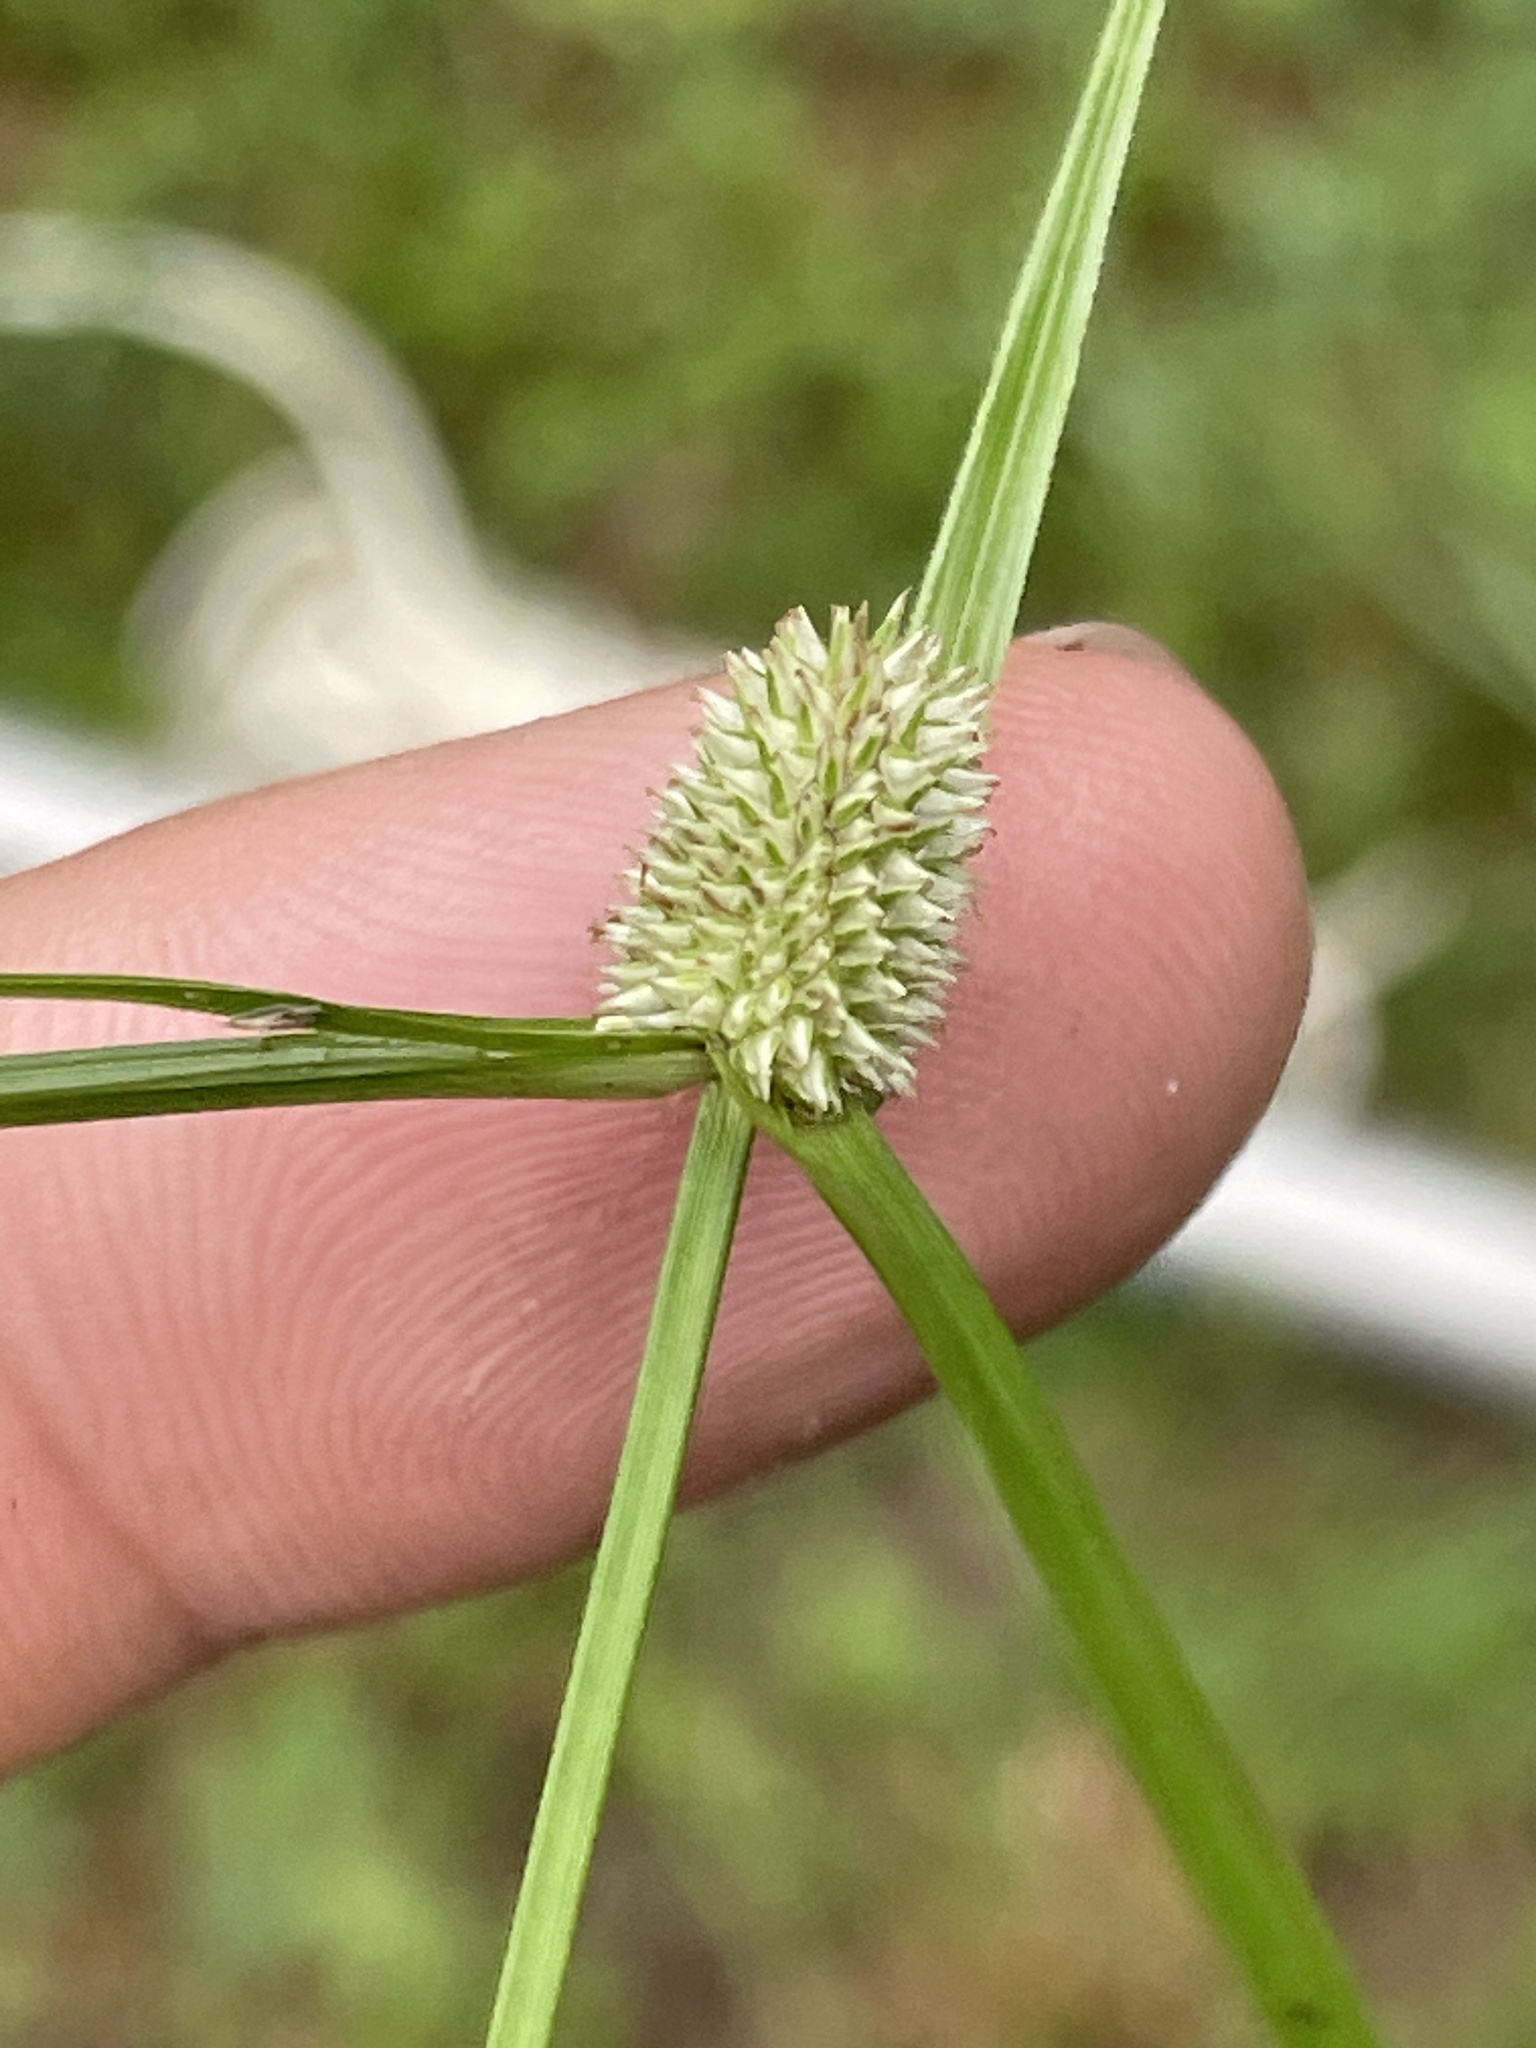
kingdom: Plantae
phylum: Tracheophyta
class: Liliopsida
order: Poales
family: Cyperaceae
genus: Cyperus
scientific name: Cyperus sesquiflorus
